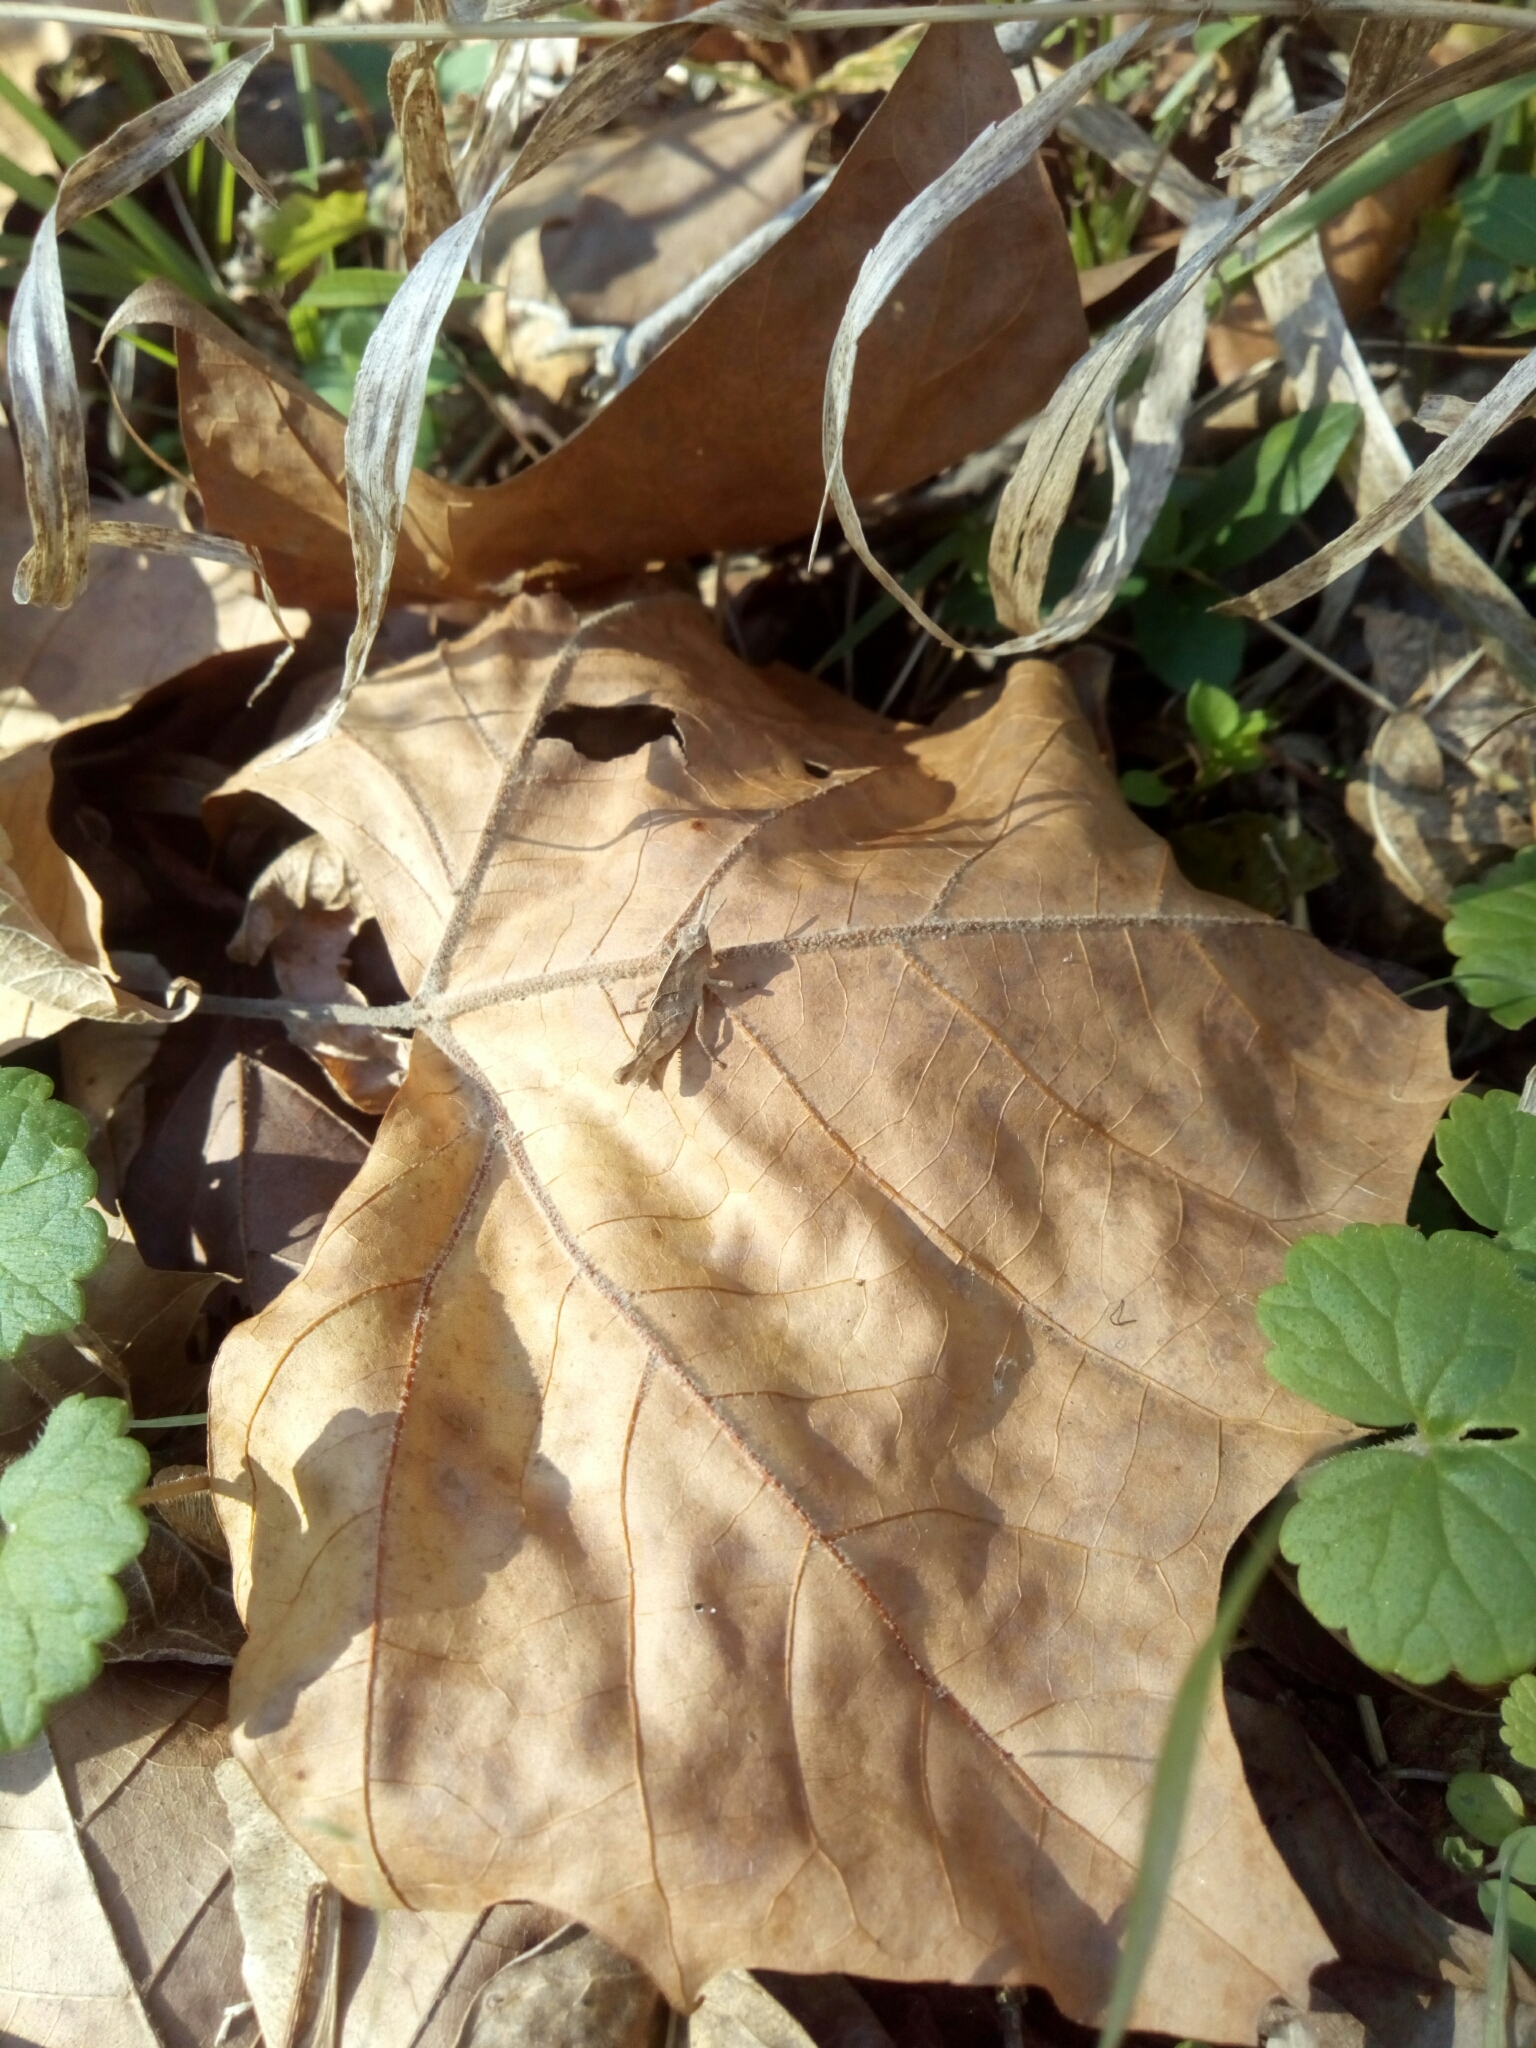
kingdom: Animalia
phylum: Arthropoda
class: Insecta
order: Orthoptera
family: Acrididae
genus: Chortophaga
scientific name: Chortophaga viridifasciata
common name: Green-striped grasshopper
